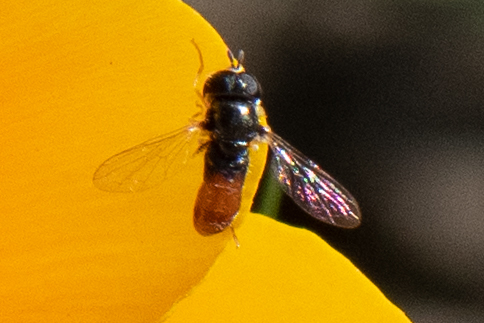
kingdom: Animalia
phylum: Arthropoda
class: Insecta
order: Diptera
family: Syrphidae
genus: Paragus
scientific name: Paragus haemorrhous
